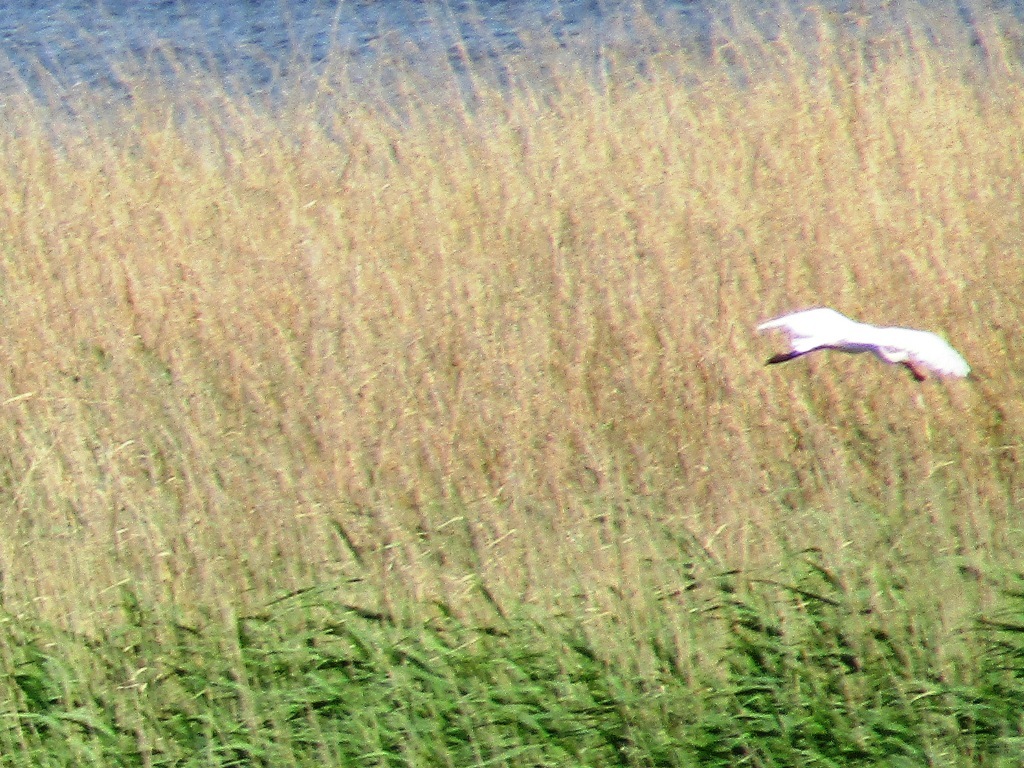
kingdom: Animalia
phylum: Chordata
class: Aves
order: Pelecaniformes
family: Threskiornithidae
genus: Platalea
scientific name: Platalea leucorodia
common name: Eurasian spoonbill
